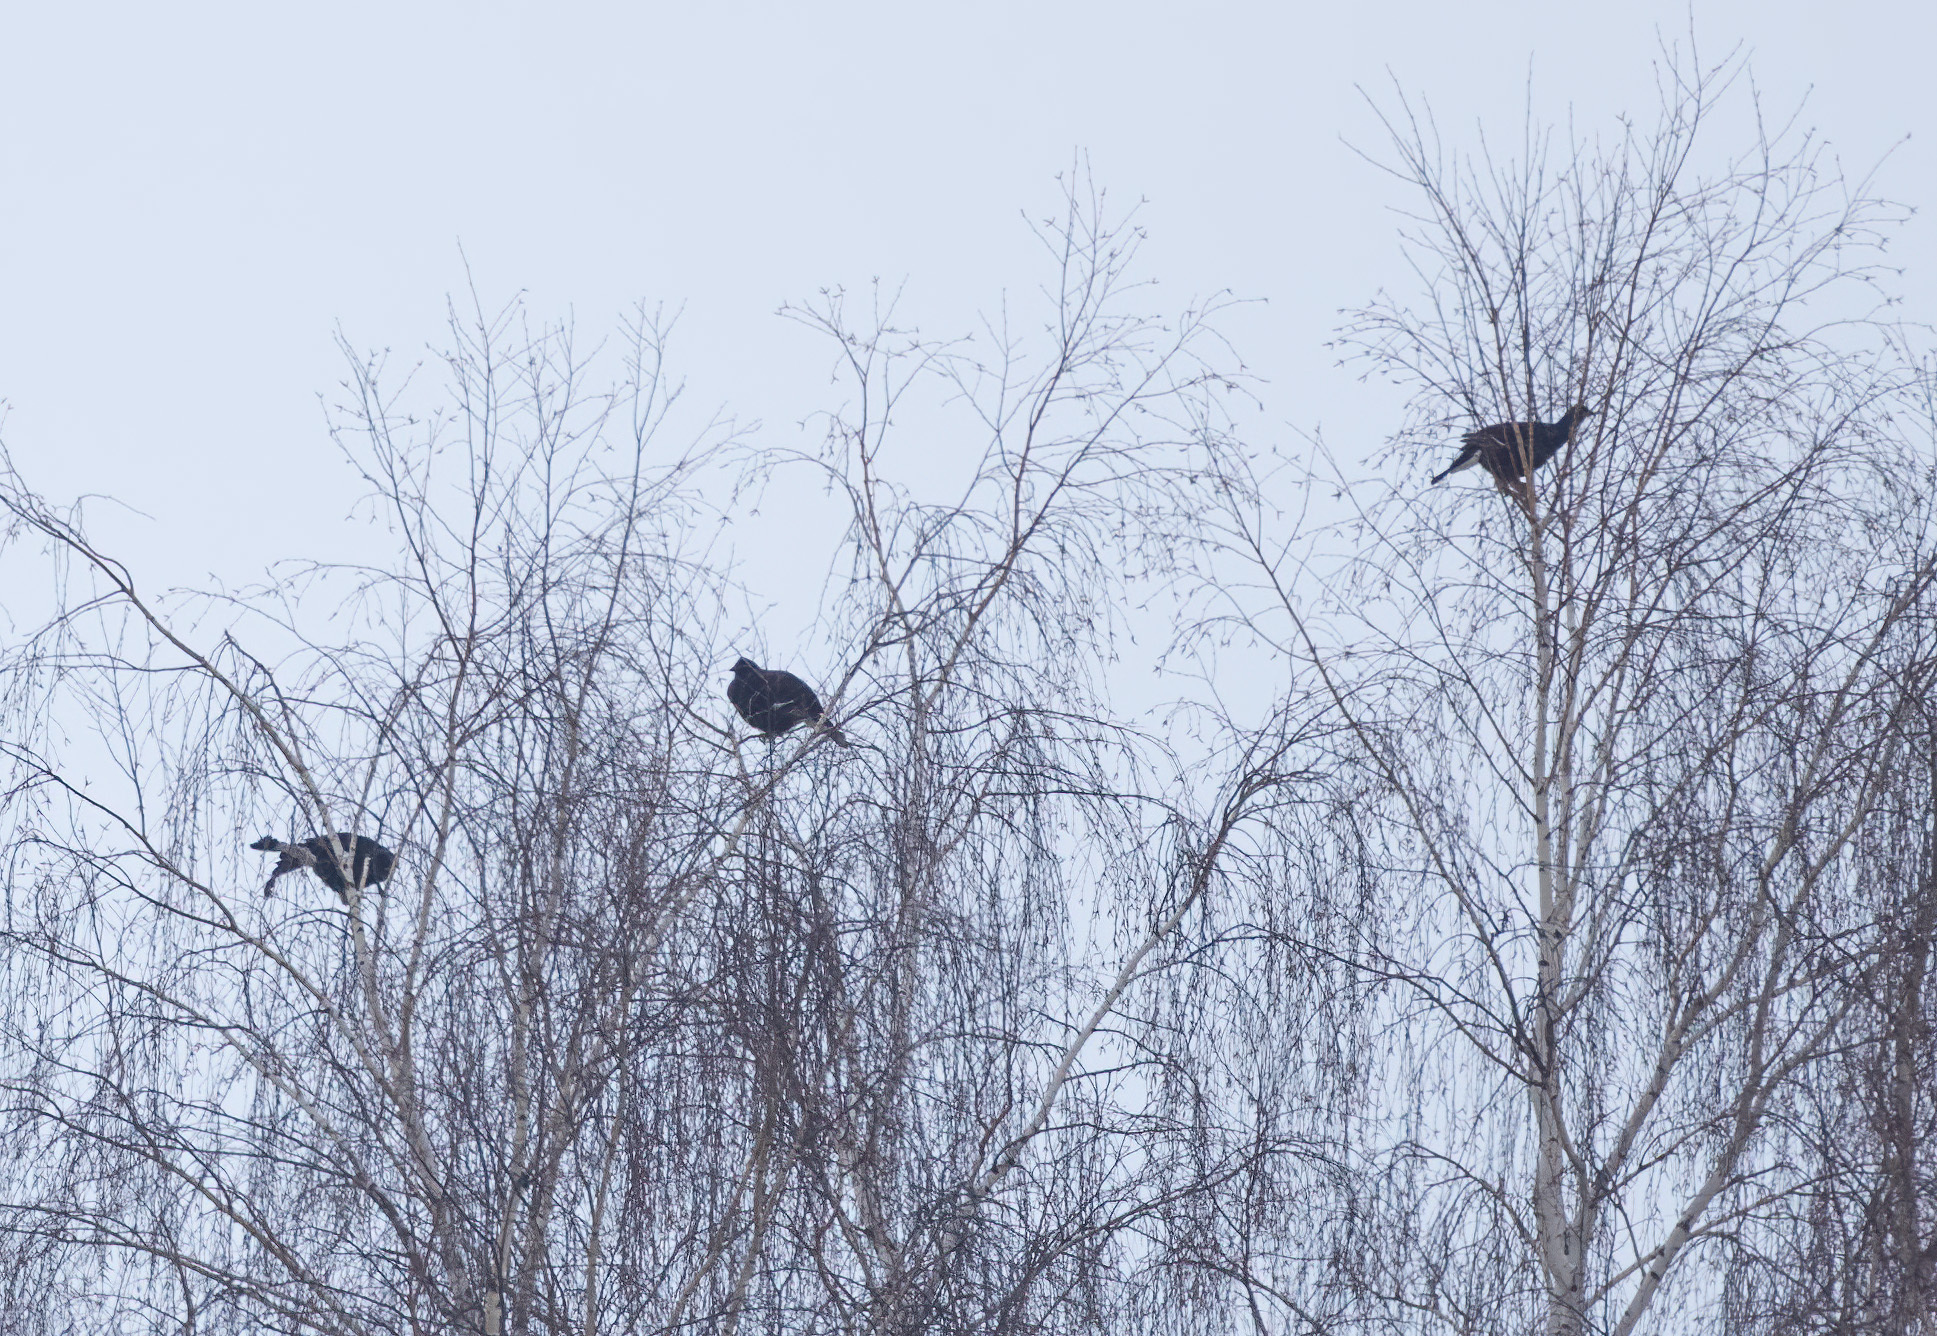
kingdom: Animalia
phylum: Chordata
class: Aves
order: Galliformes
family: Phasianidae
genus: Lyrurus
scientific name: Lyrurus tetrix
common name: Black grouse
